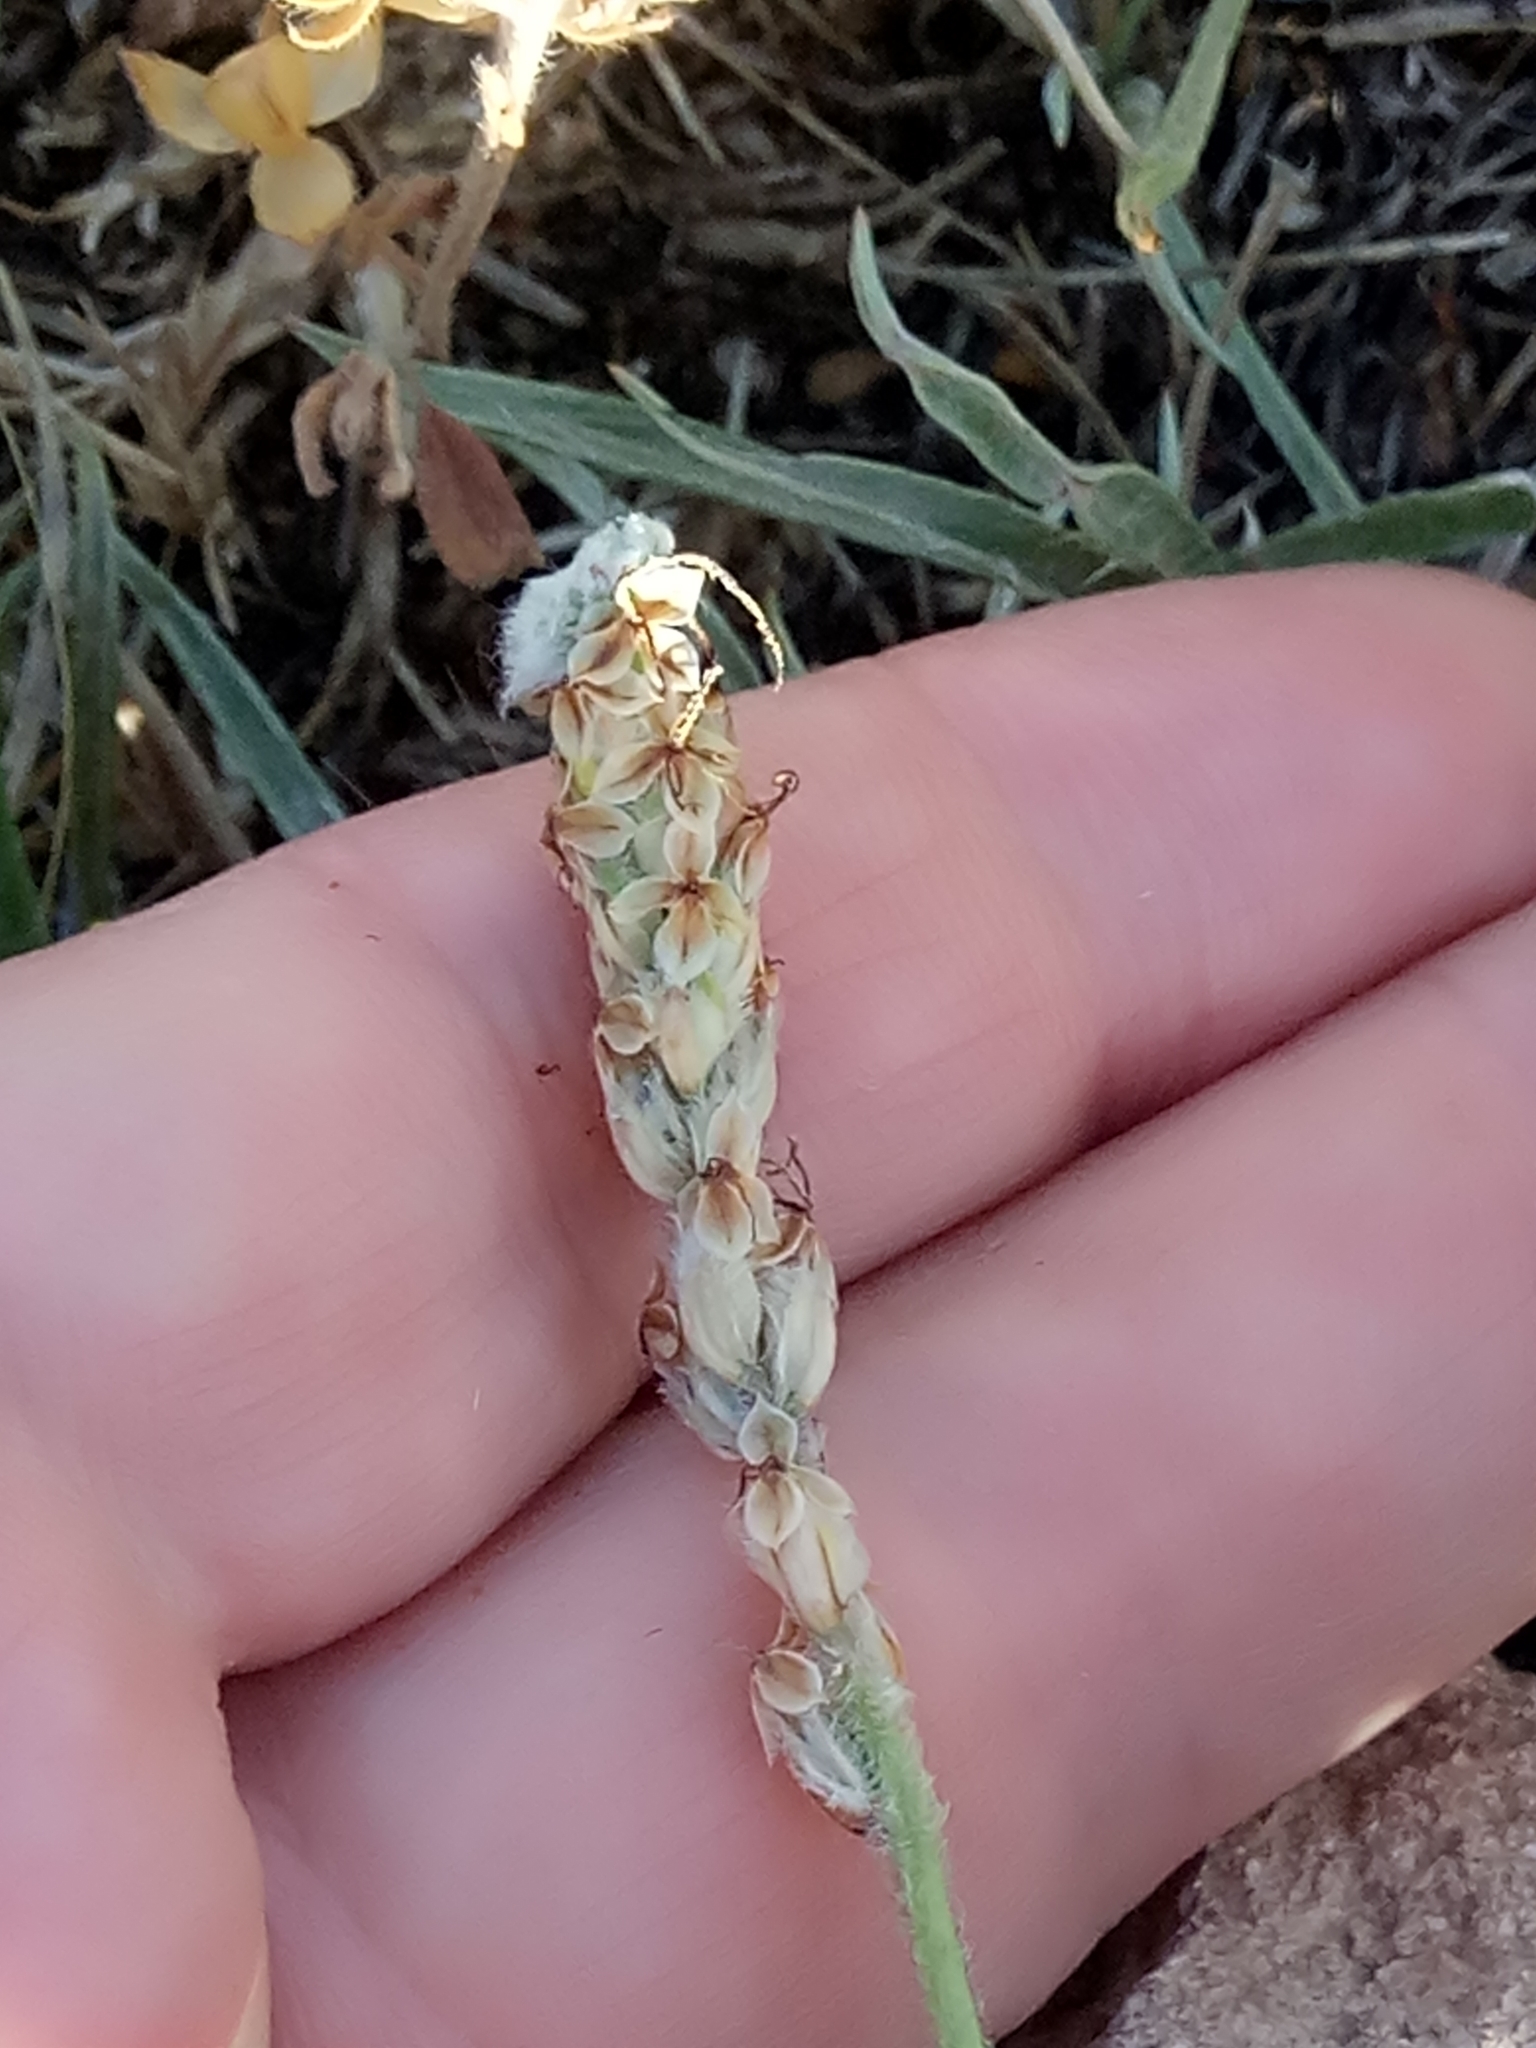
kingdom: Plantae
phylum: Tracheophyta
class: Magnoliopsida
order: Lamiales
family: Plantaginaceae
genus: Plantago
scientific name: Plantago albicans
